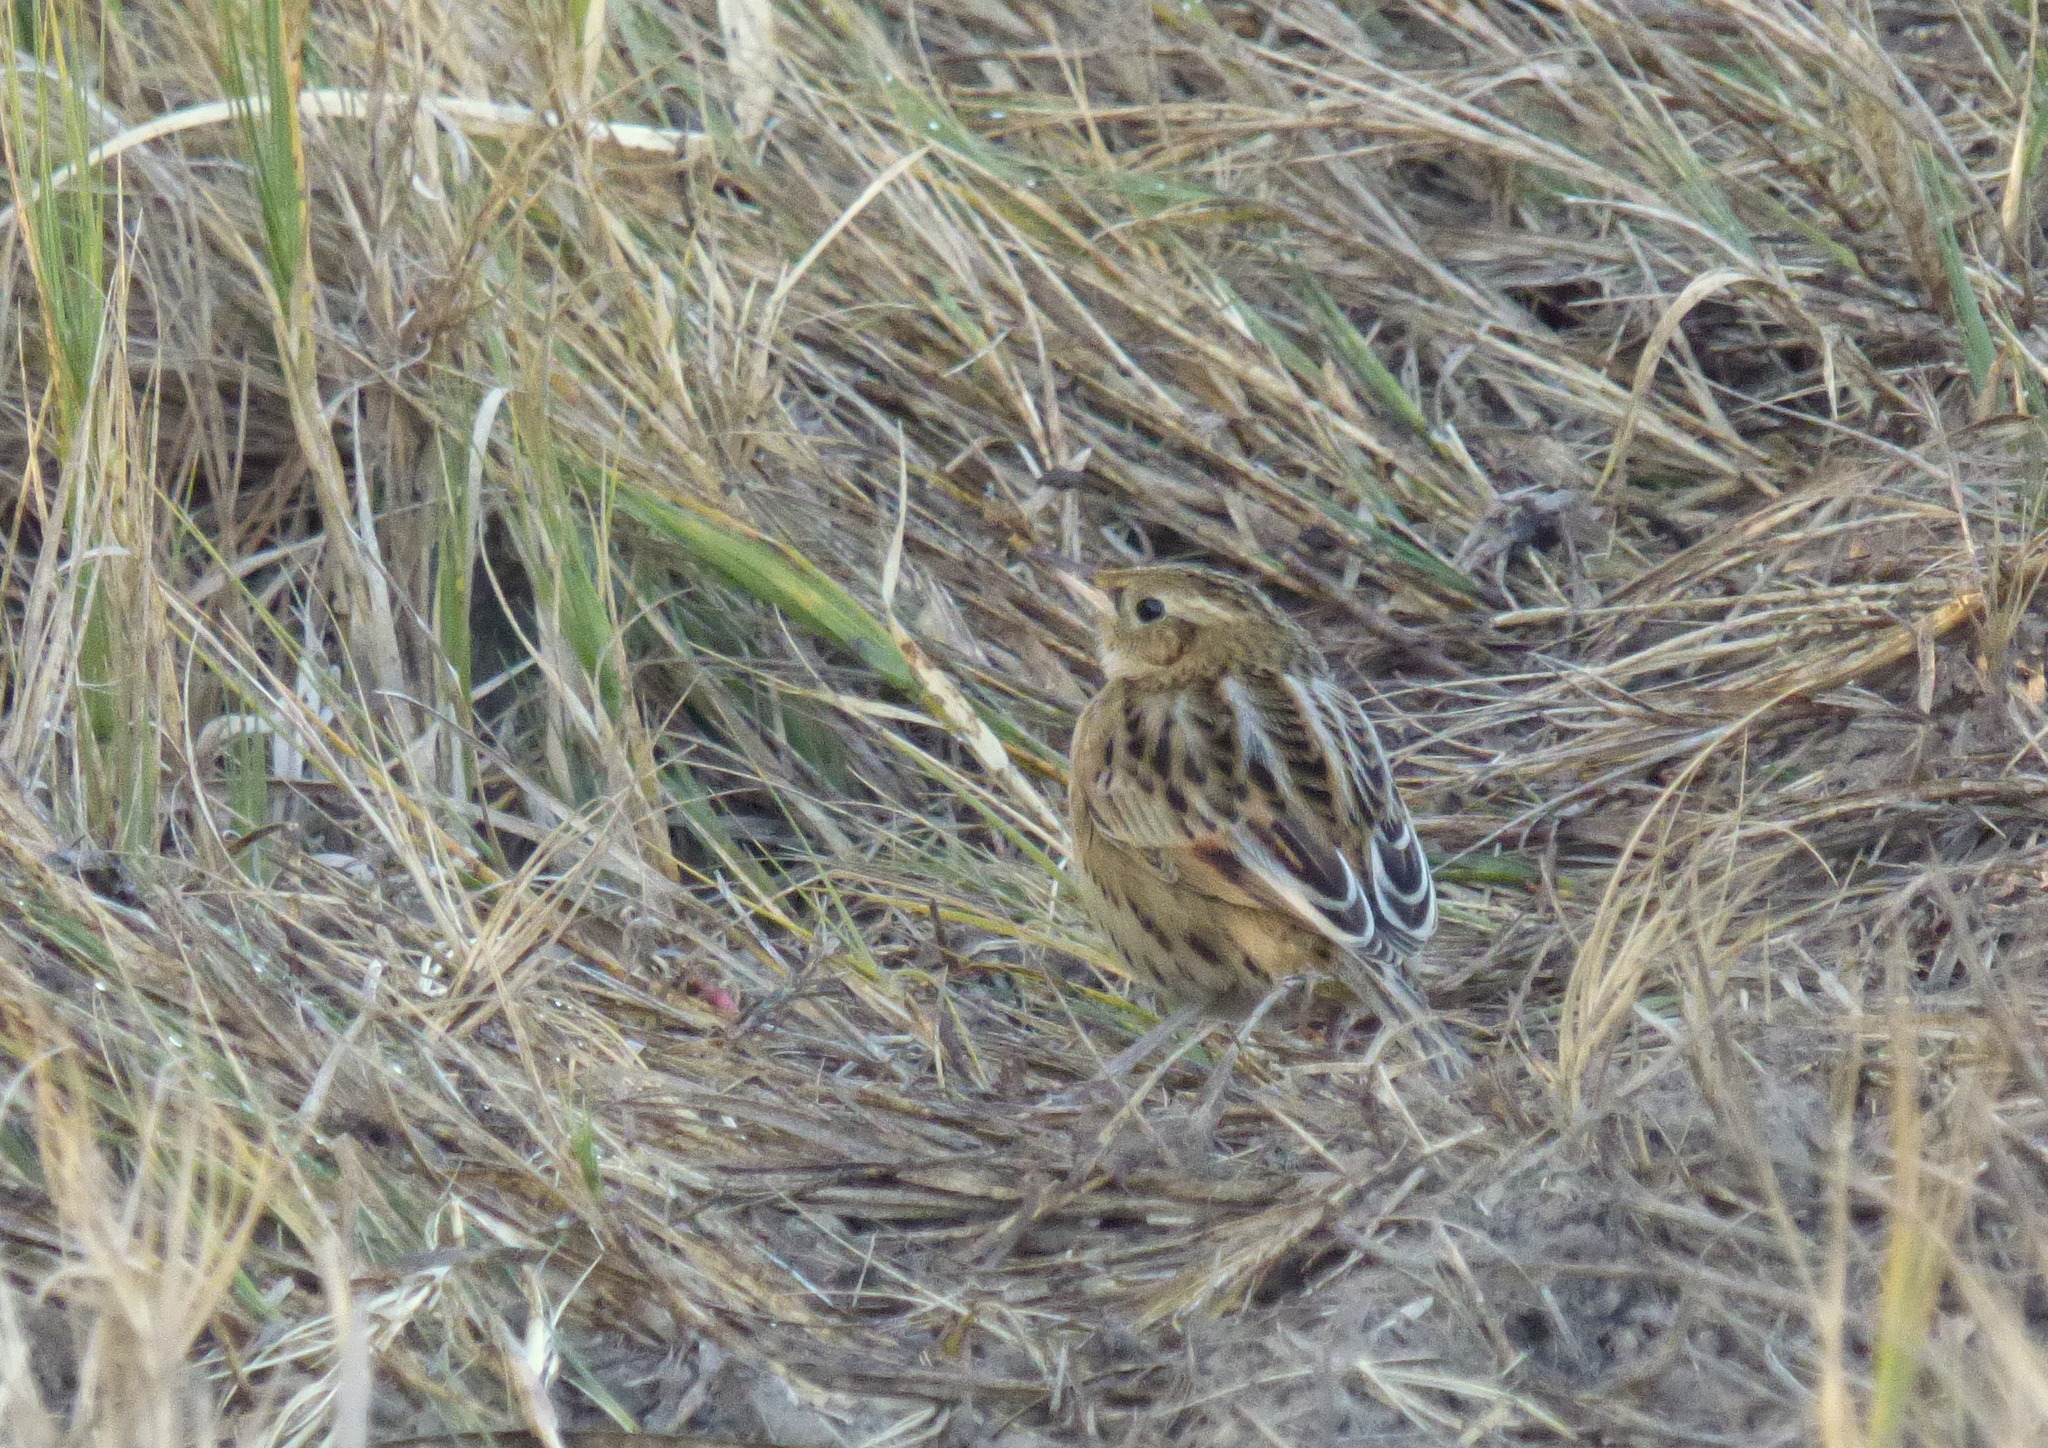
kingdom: Animalia
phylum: Chordata
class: Aves
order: Passeriformes
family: Furnariidae
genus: Asthenes
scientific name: Asthenes hudsoni
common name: Hudson's canastero
